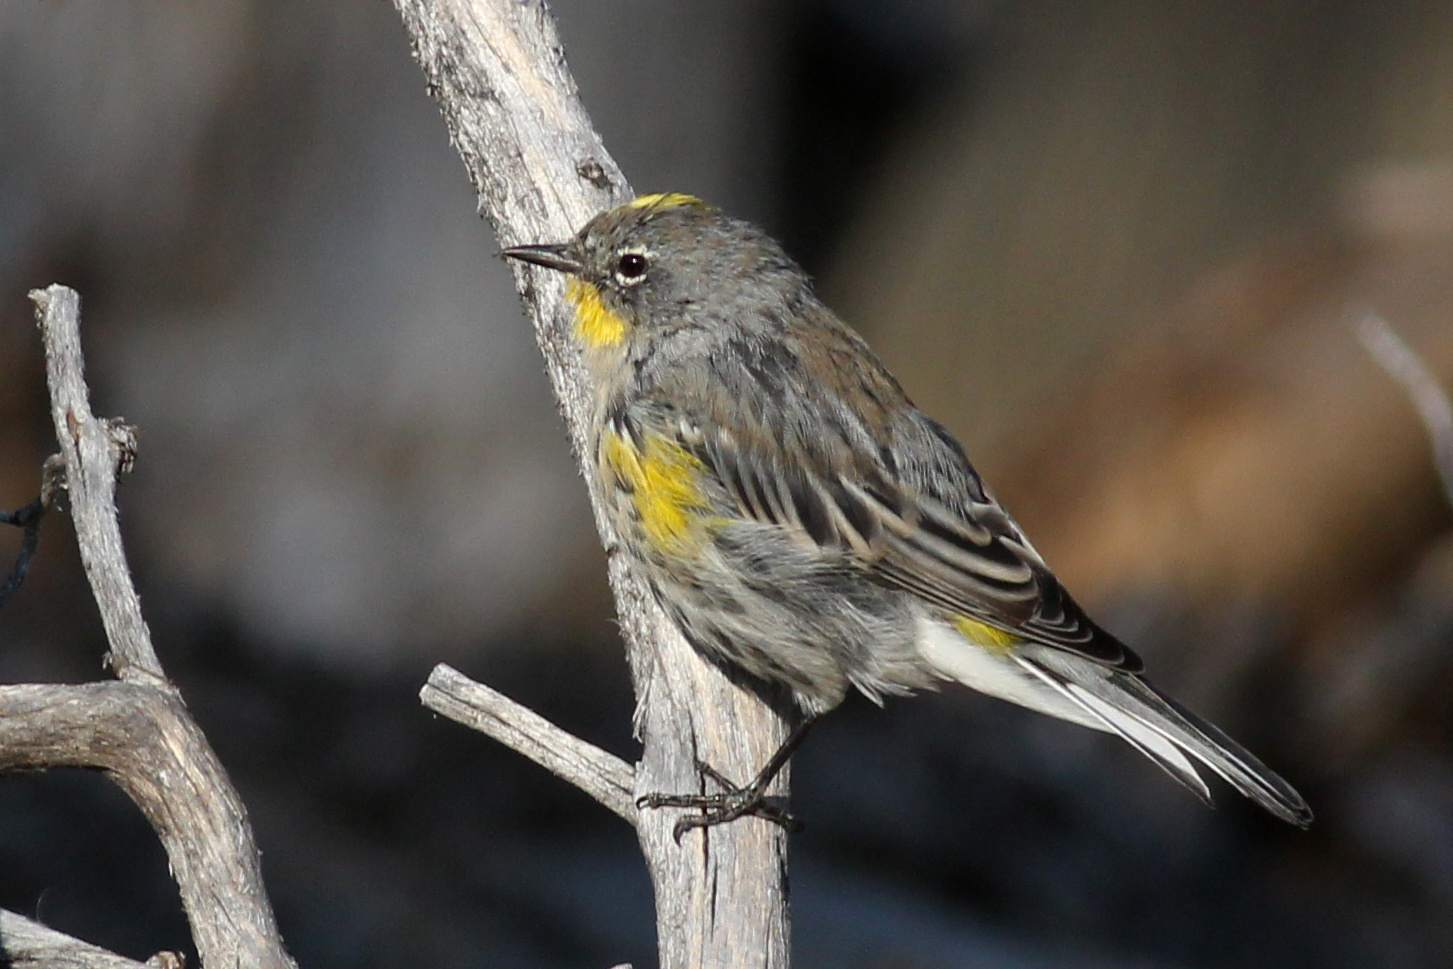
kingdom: Animalia
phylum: Chordata
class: Aves
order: Passeriformes
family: Parulidae
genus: Setophaga
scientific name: Setophaga auduboni
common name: Audubon's warbler
